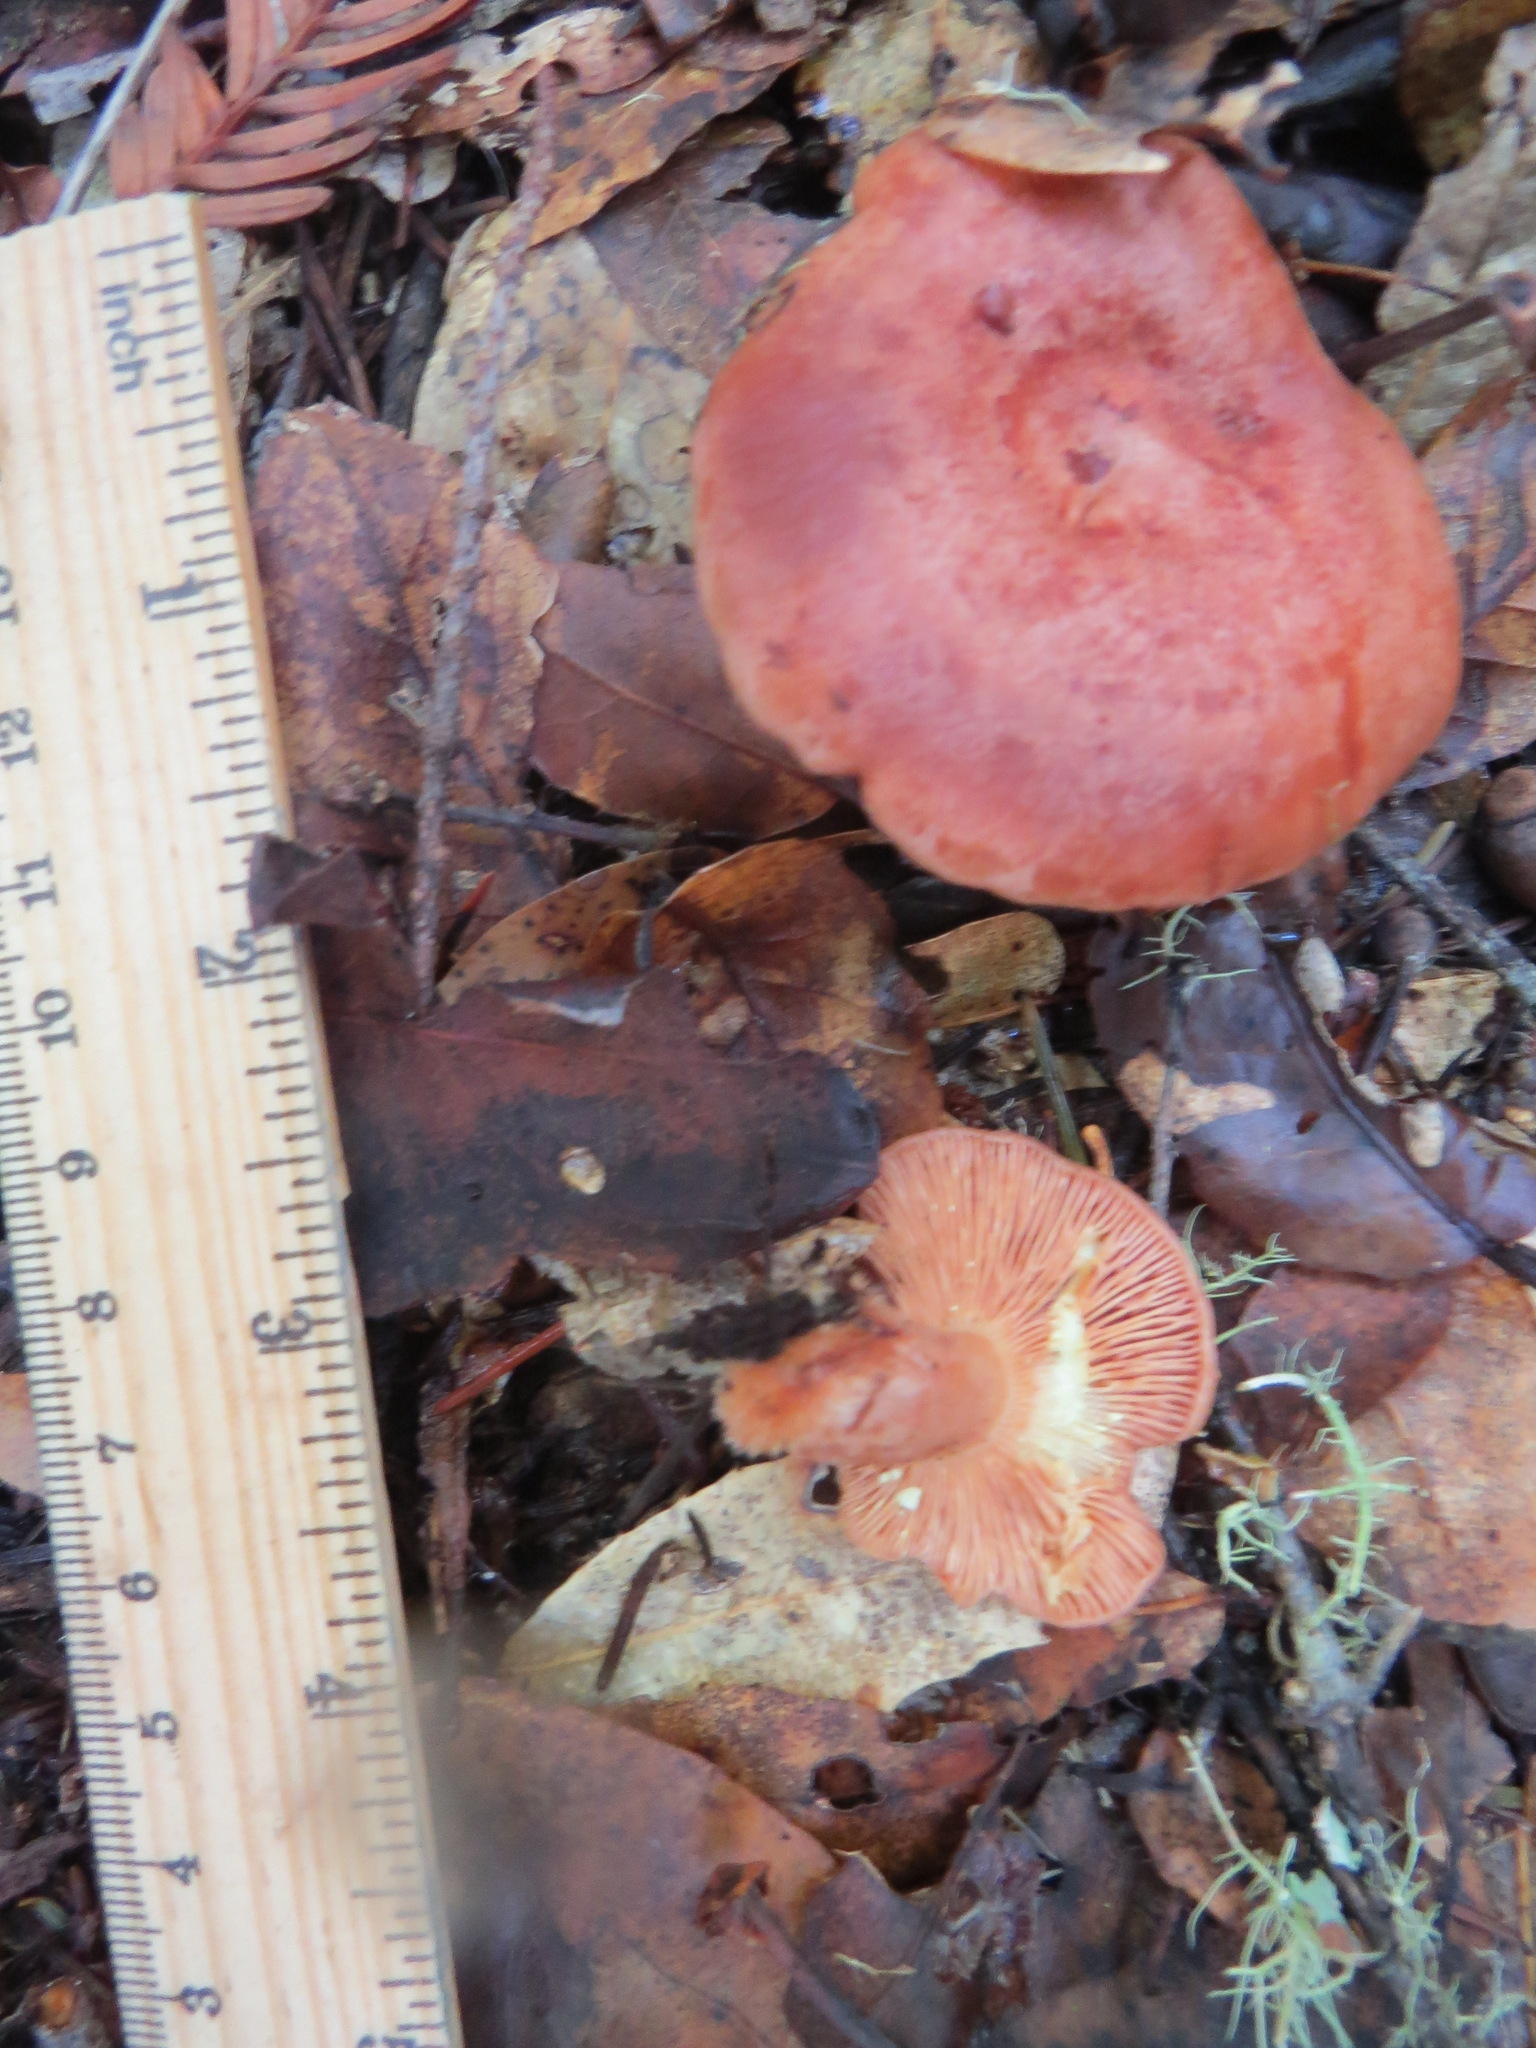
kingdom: Fungi
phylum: Basidiomycota
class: Agaricomycetes
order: Russulales
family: Russulaceae
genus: Lactarius
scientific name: Lactarius xanthogalactus
